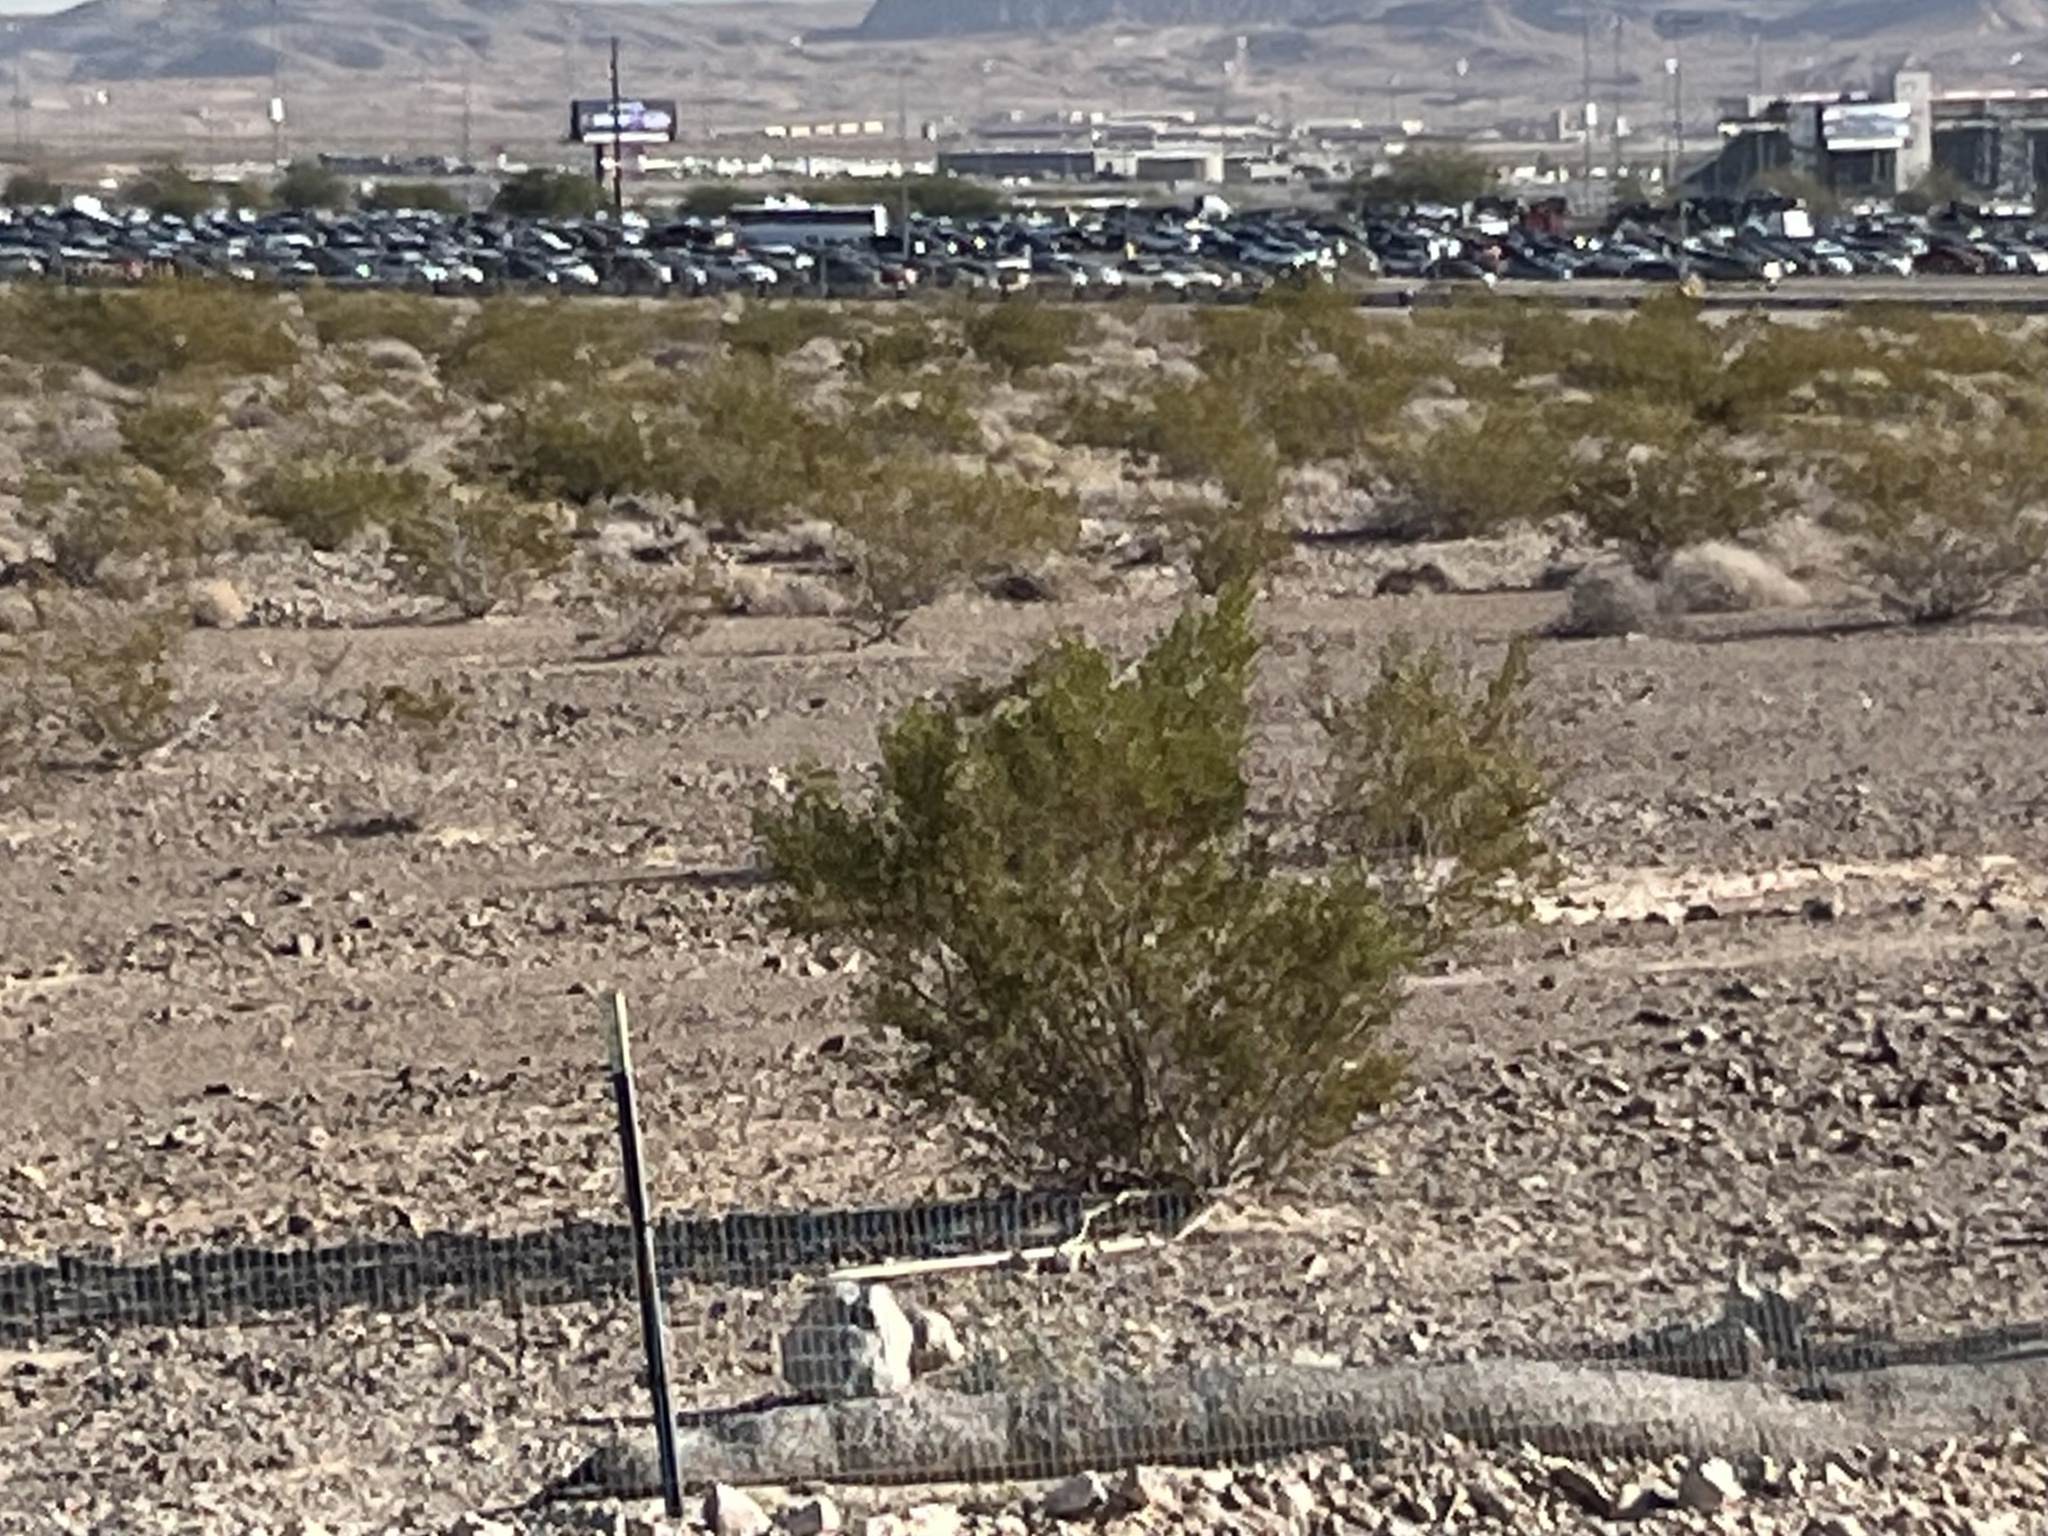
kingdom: Plantae
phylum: Tracheophyta
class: Magnoliopsida
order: Zygophyllales
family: Zygophyllaceae
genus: Larrea
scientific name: Larrea tridentata
